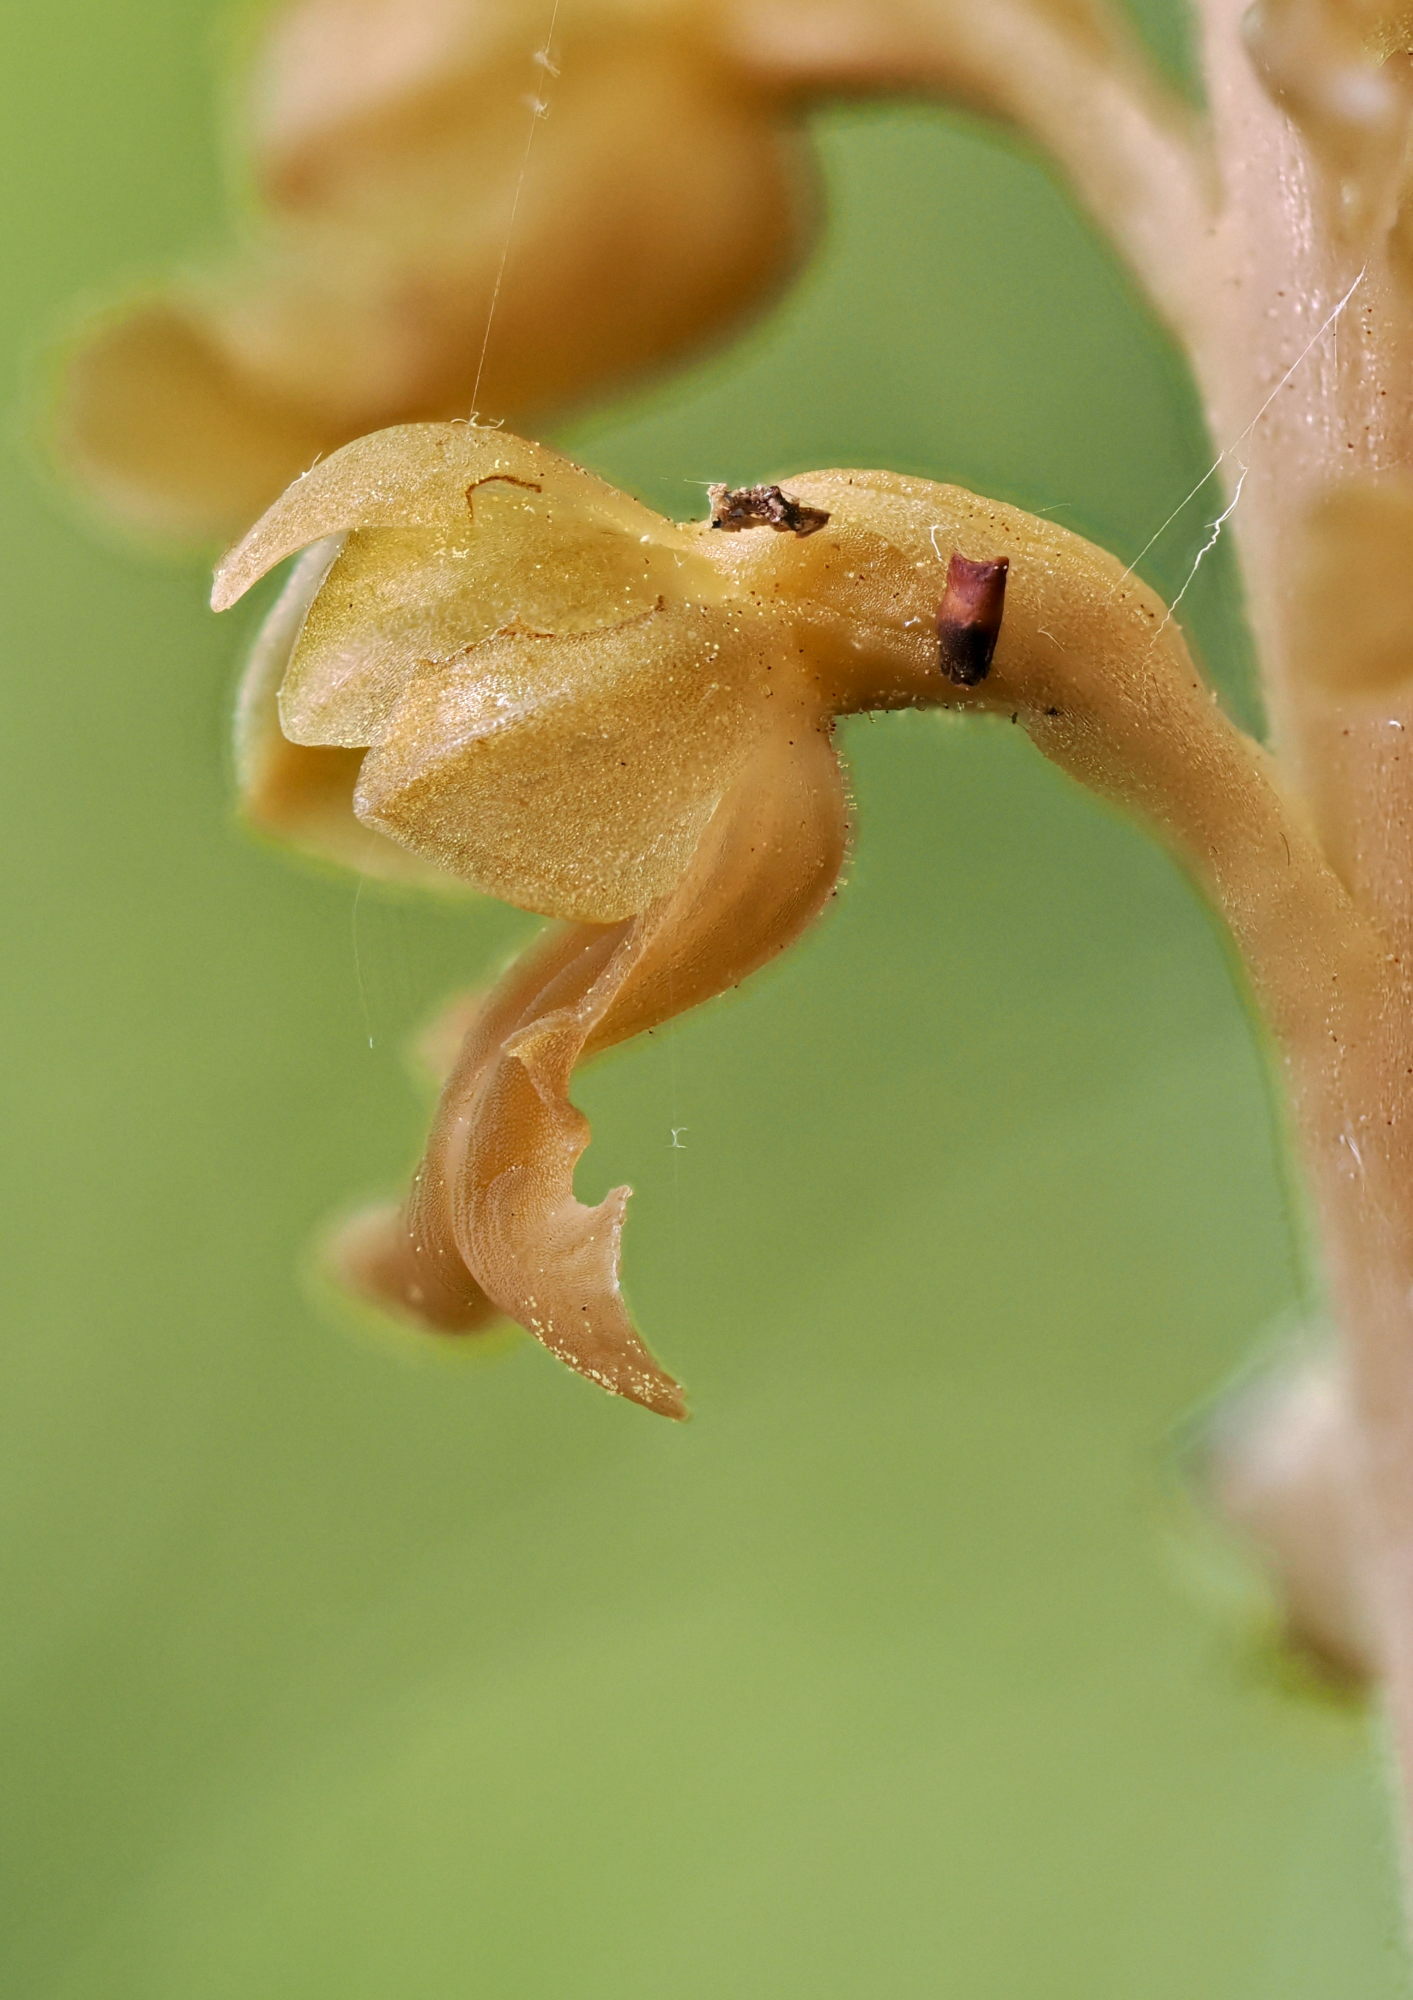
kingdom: Plantae
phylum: Tracheophyta
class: Liliopsida
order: Asparagales
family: Orchidaceae
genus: Neottia
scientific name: Neottia nidus-avis
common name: Bird's-nest orchid
